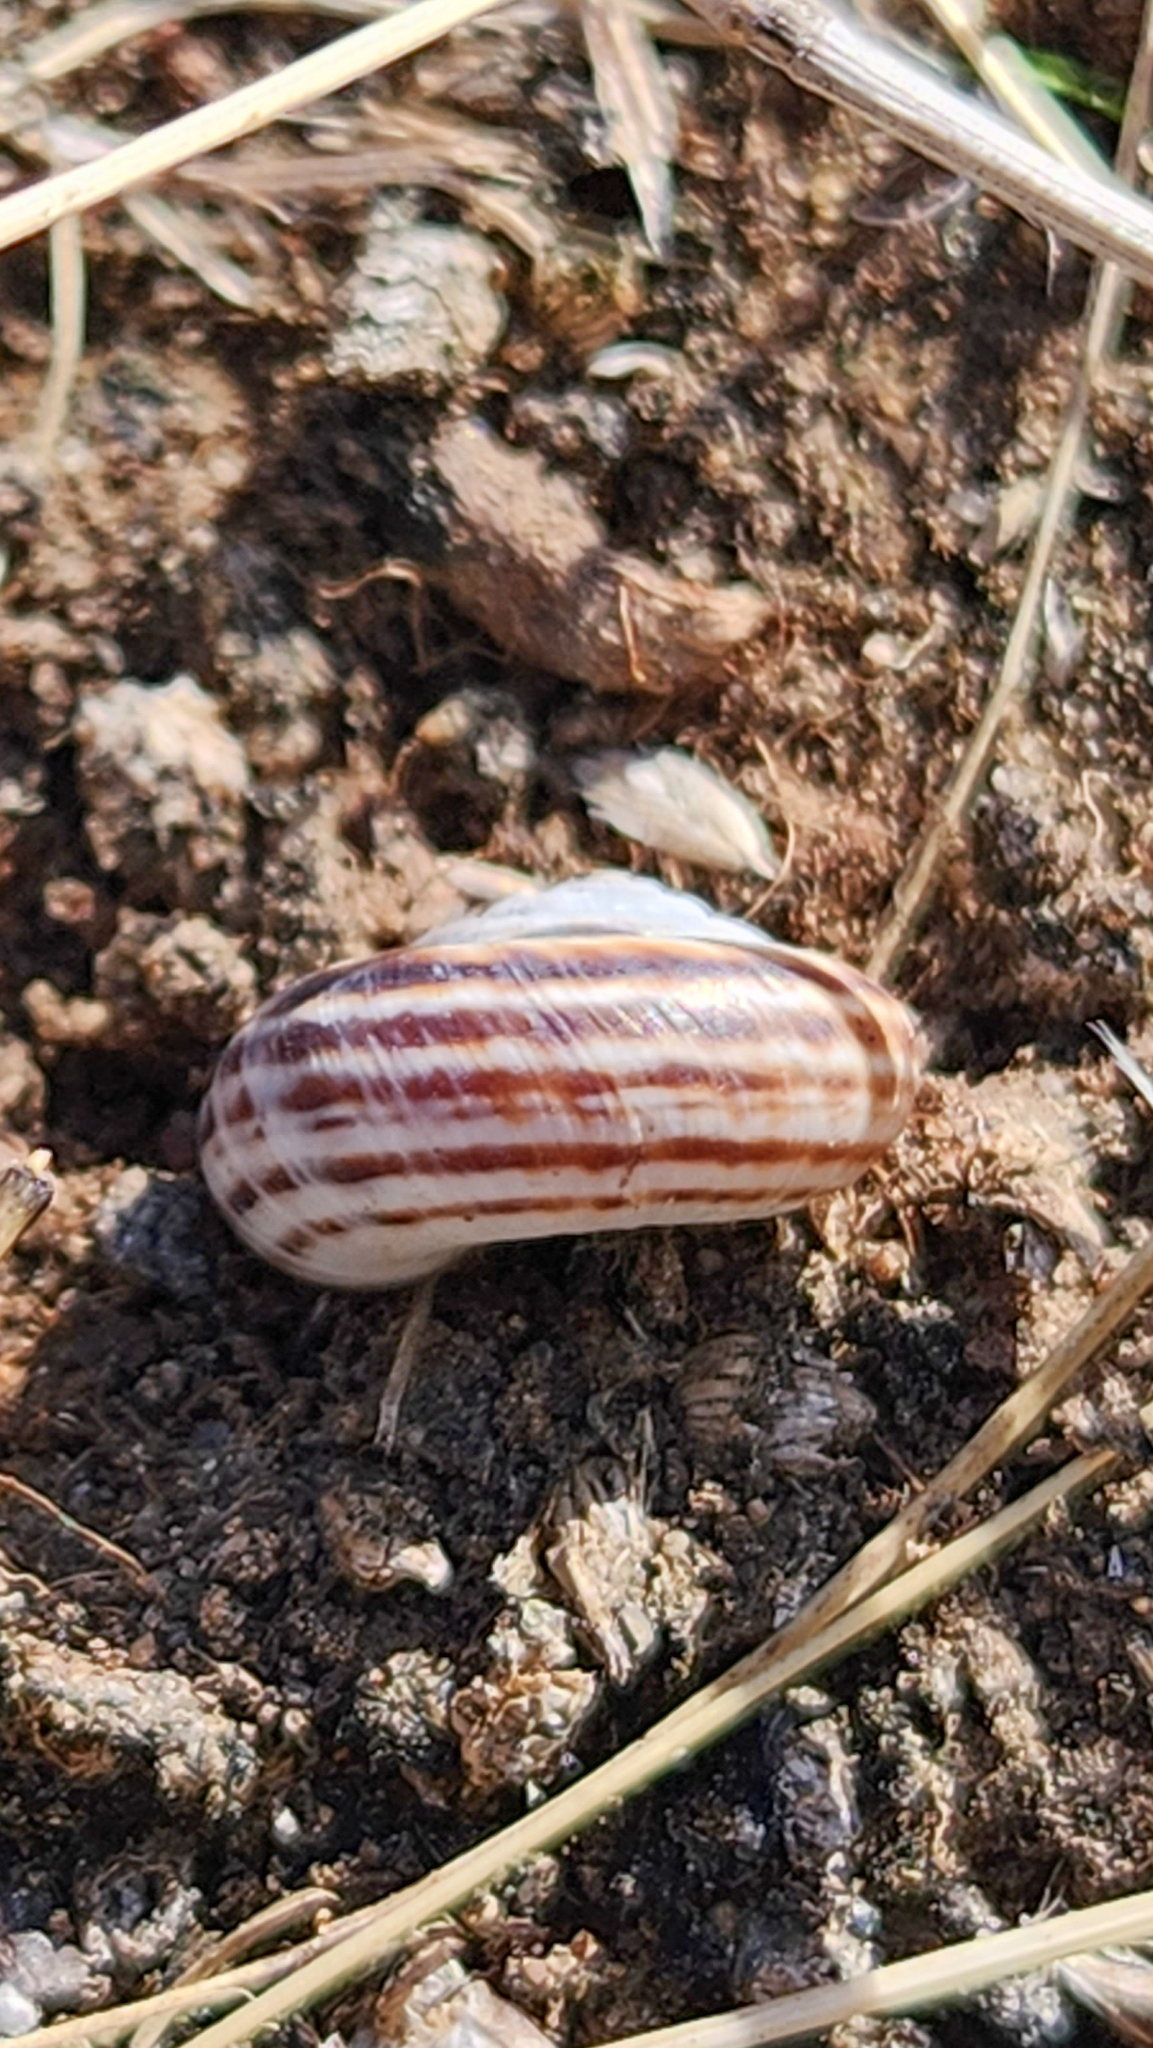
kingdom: Animalia
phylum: Mollusca
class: Gastropoda
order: Stylommatophora
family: Geomitridae
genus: Xerolenta
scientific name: Xerolenta obvia
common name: White heath snail
